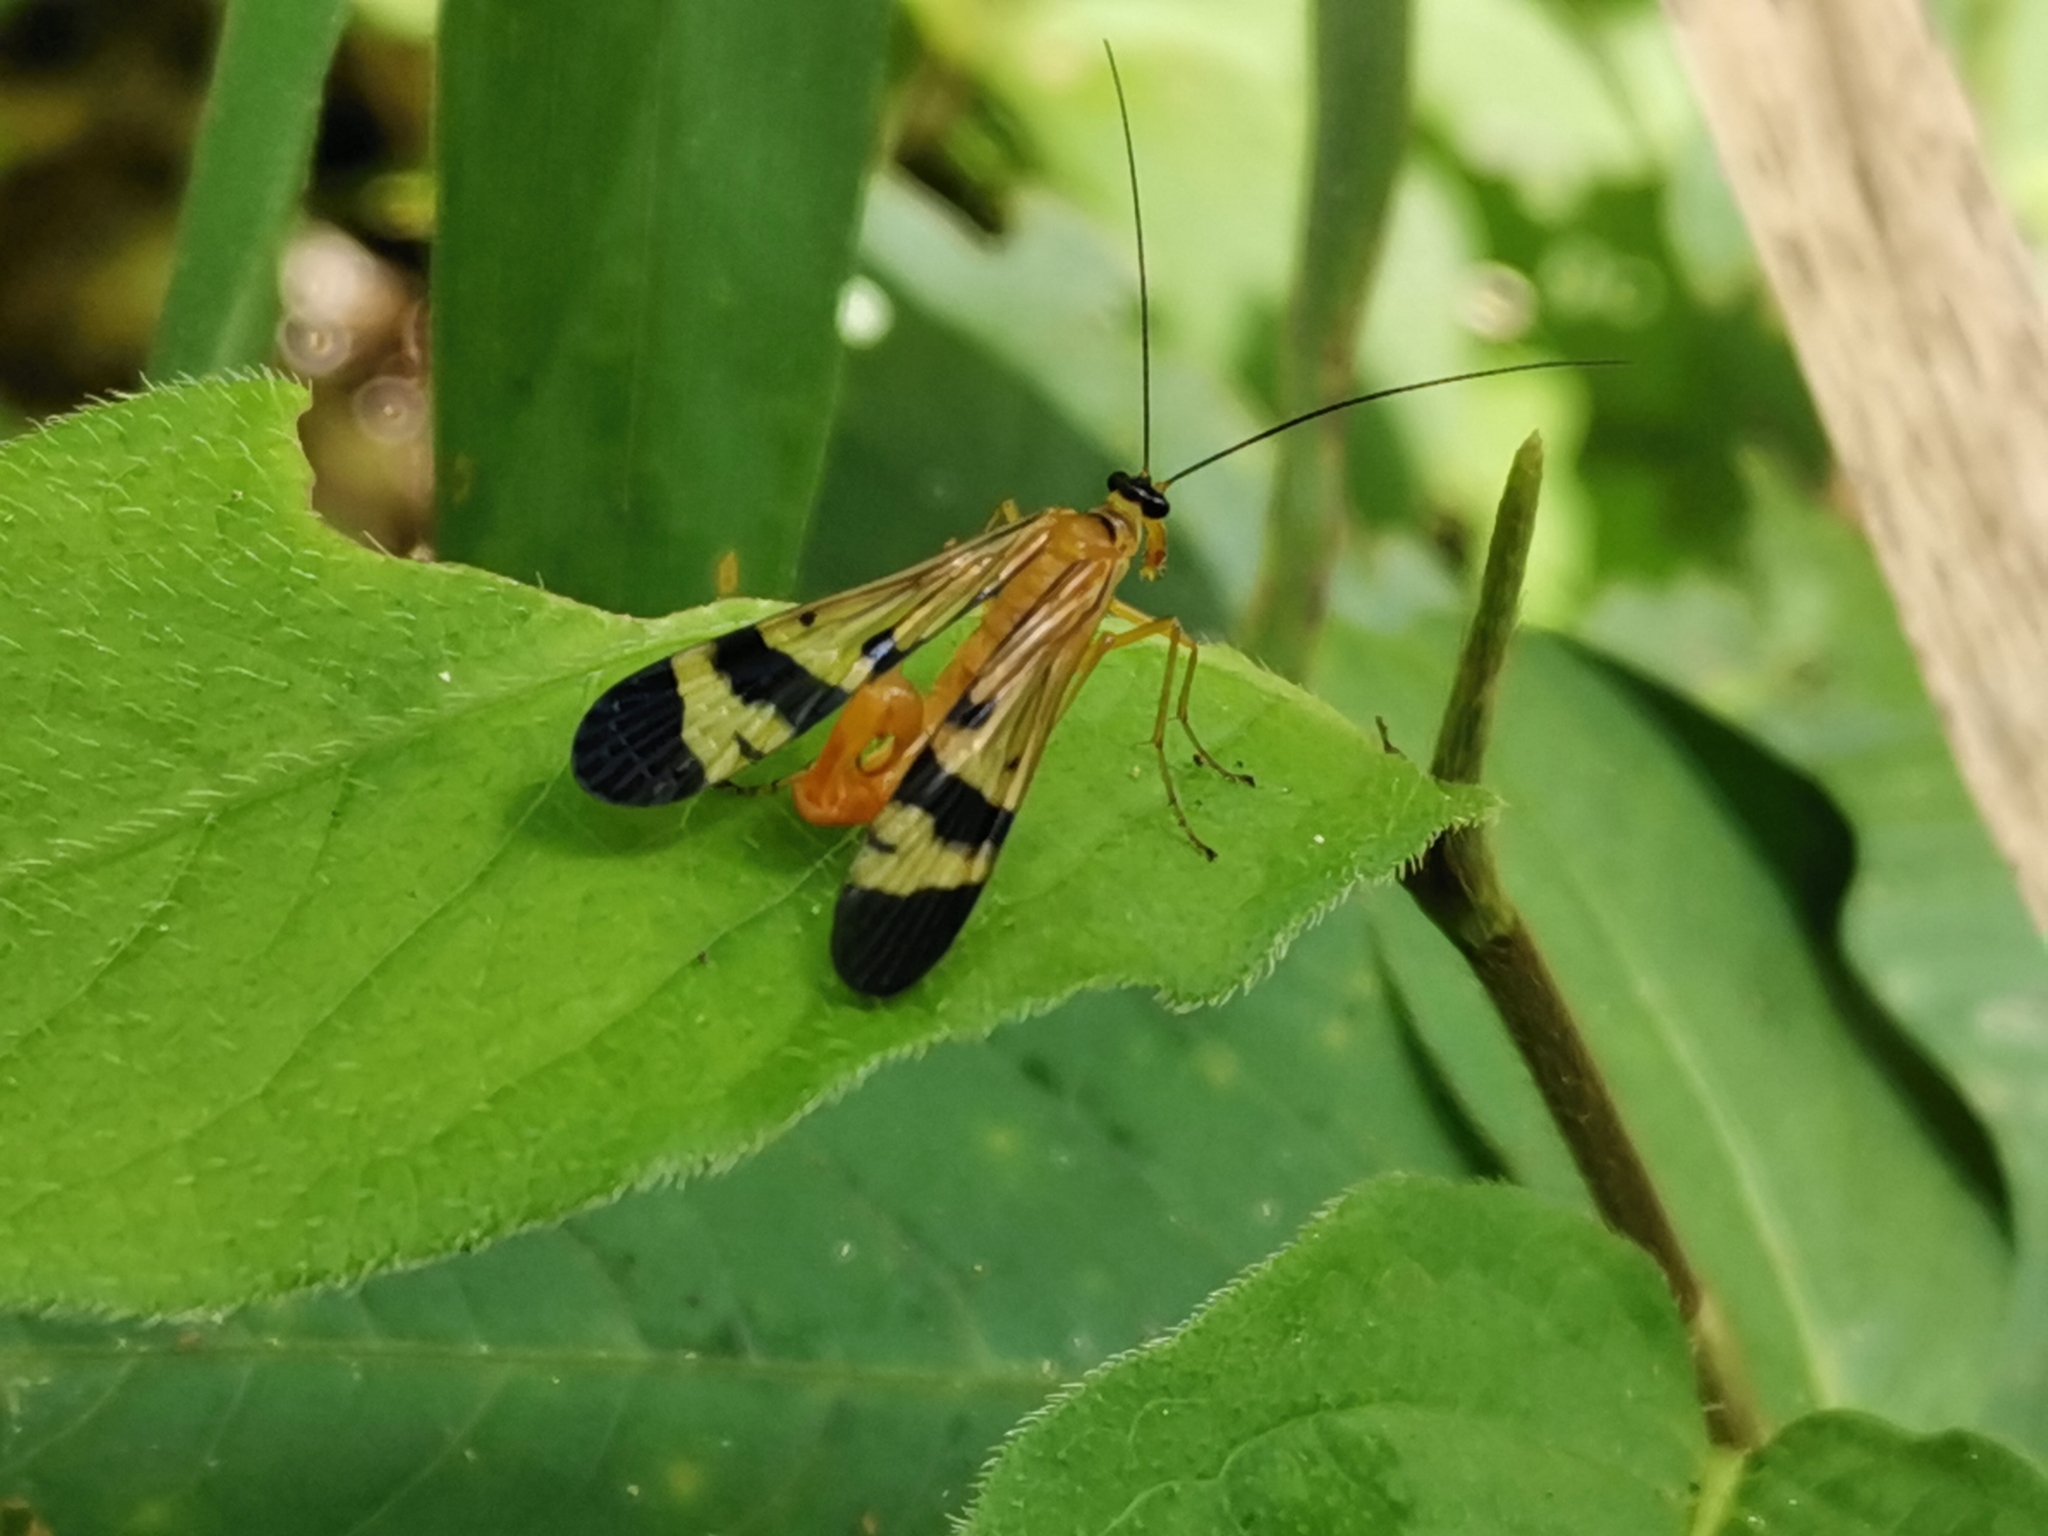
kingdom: Animalia
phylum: Arthropoda
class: Insecta
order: Mecoptera
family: Panorpidae
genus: Panorpa
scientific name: Panorpa japonica
